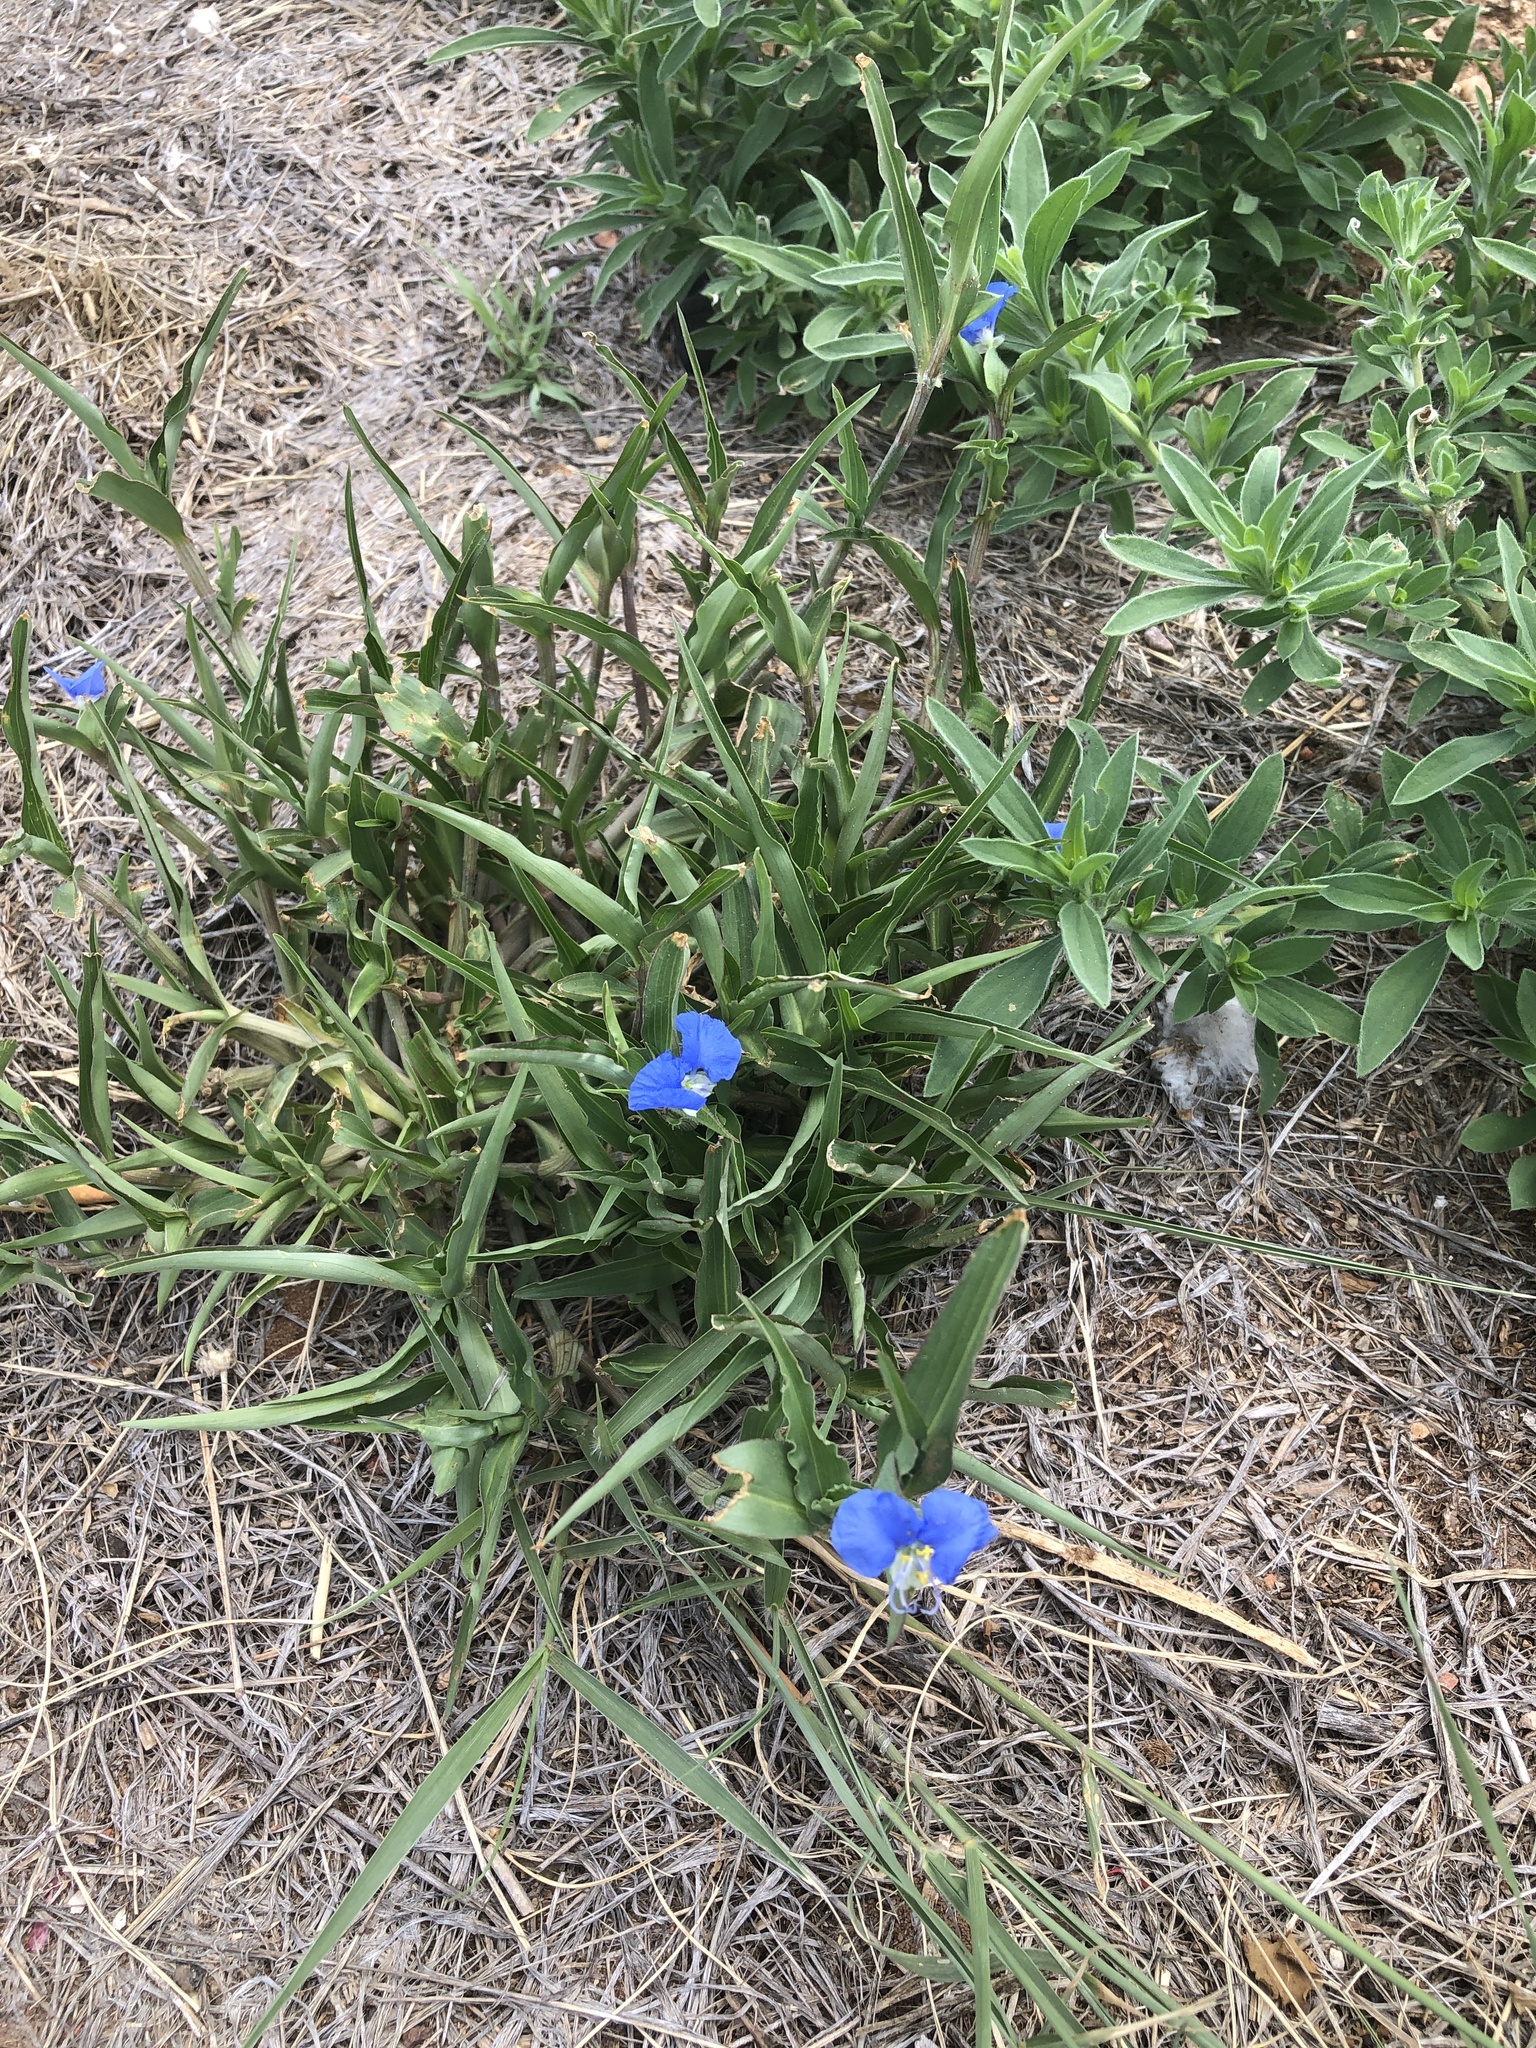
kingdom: Plantae
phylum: Tracheophyta
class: Liliopsida
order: Commelinales
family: Commelinaceae
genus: Commelina
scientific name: Commelina erecta
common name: Blousel blommetjie
